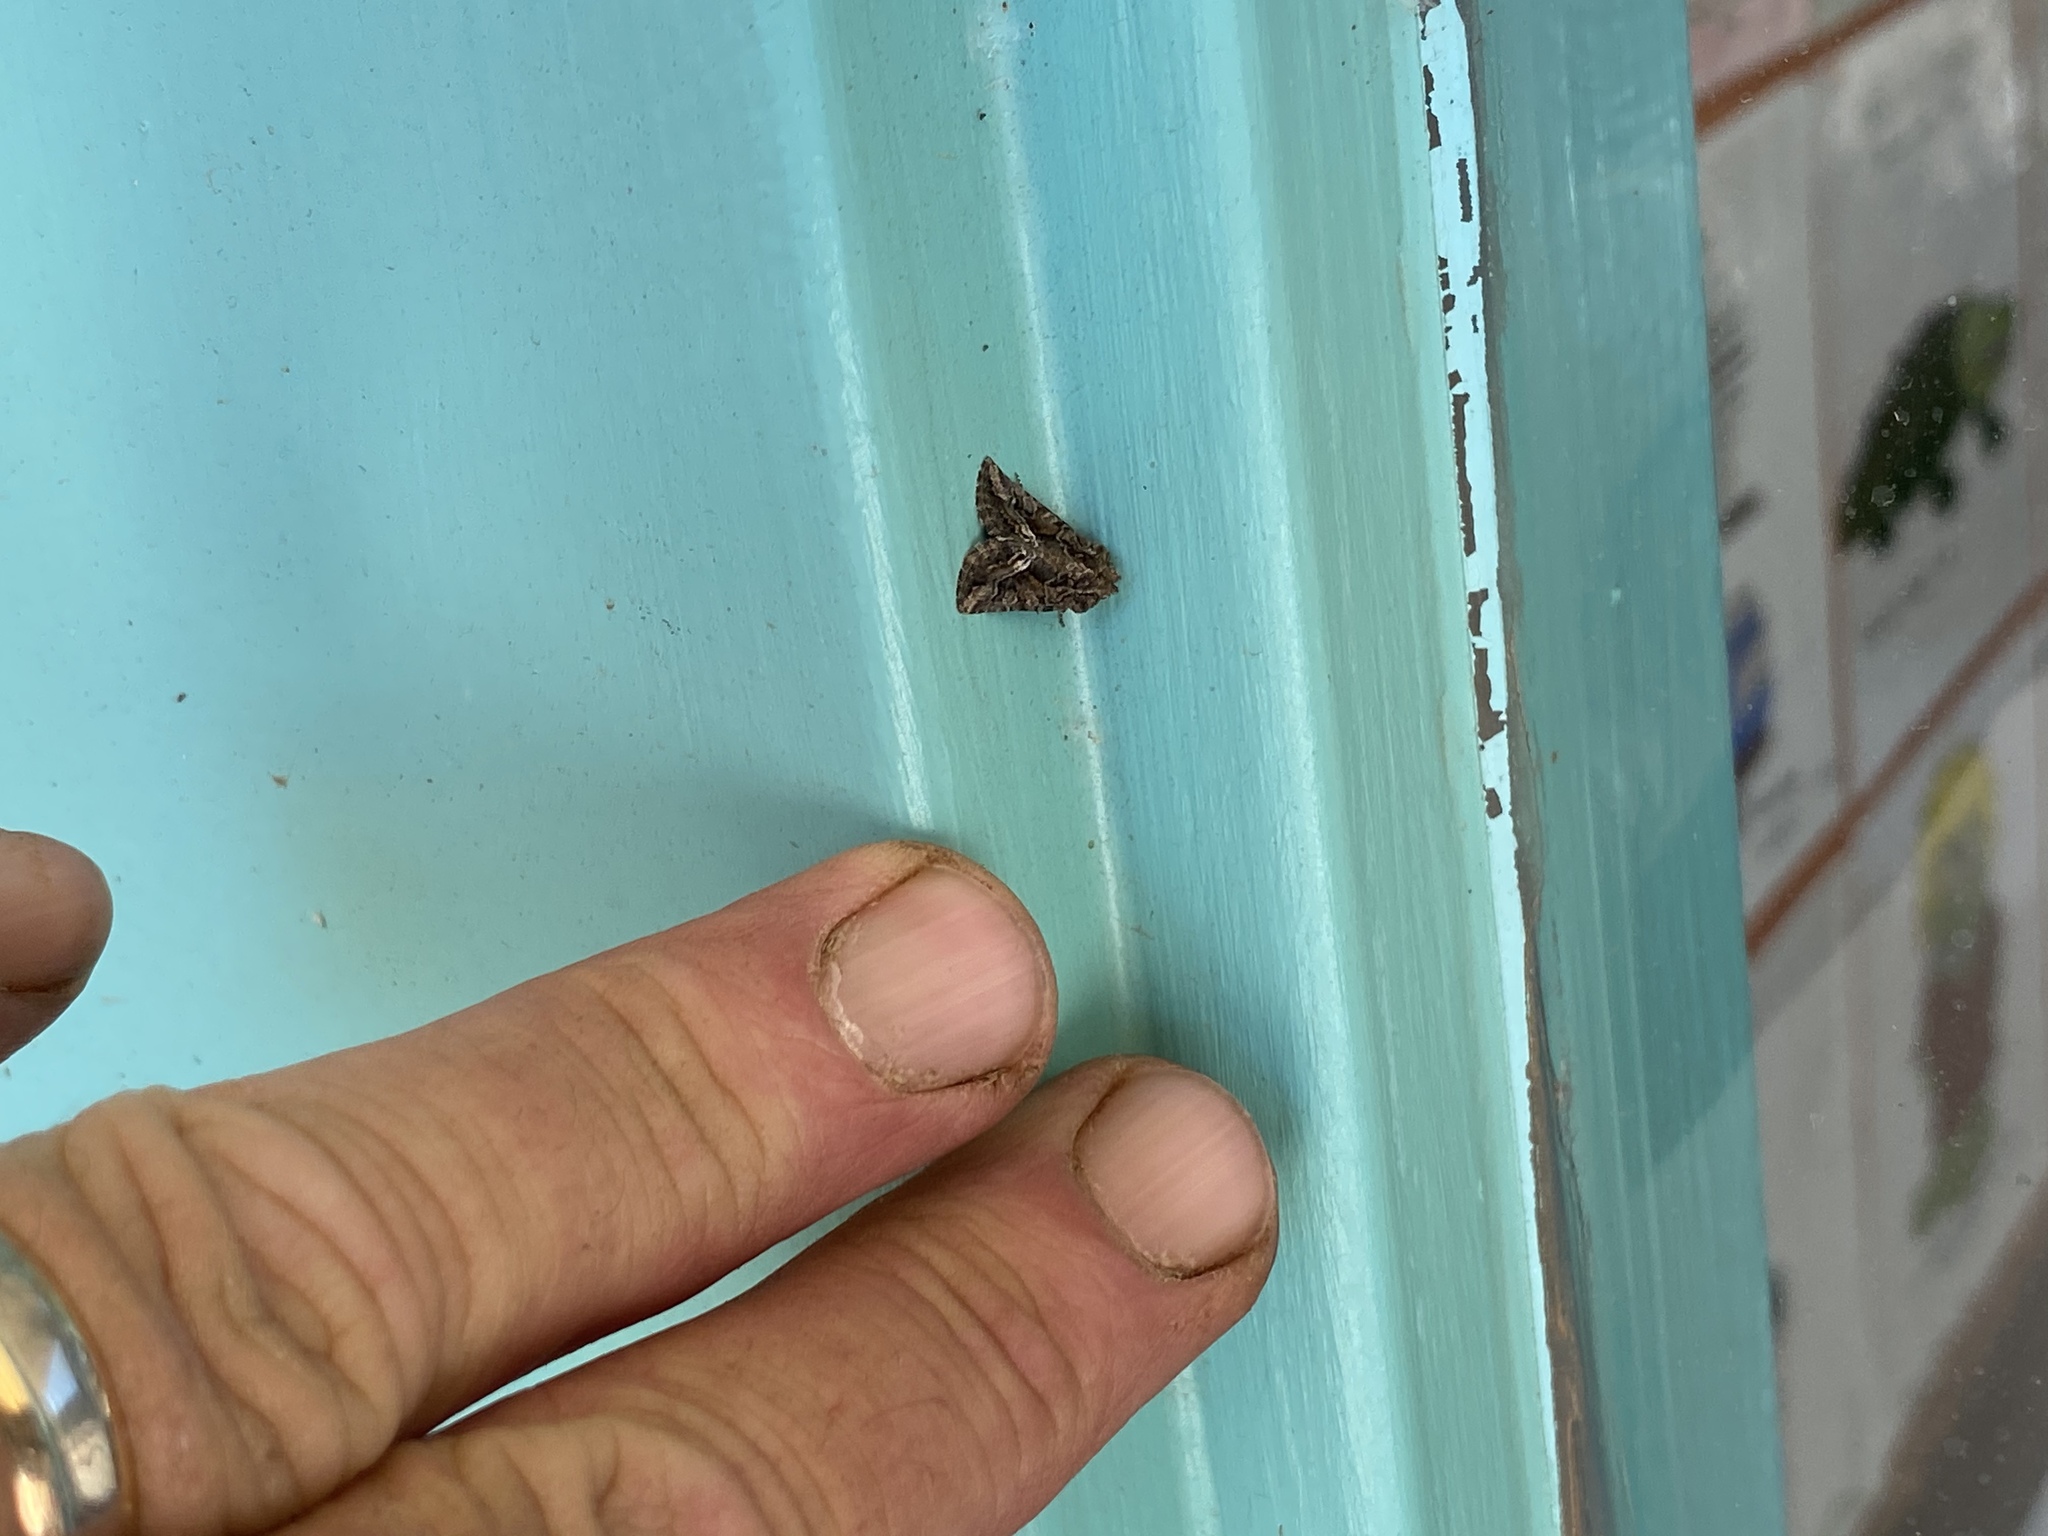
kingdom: Animalia
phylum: Arthropoda
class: Insecta
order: Lepidoptera
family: Noctuidae
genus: Pseudanarta
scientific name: Pseudanarta actura
